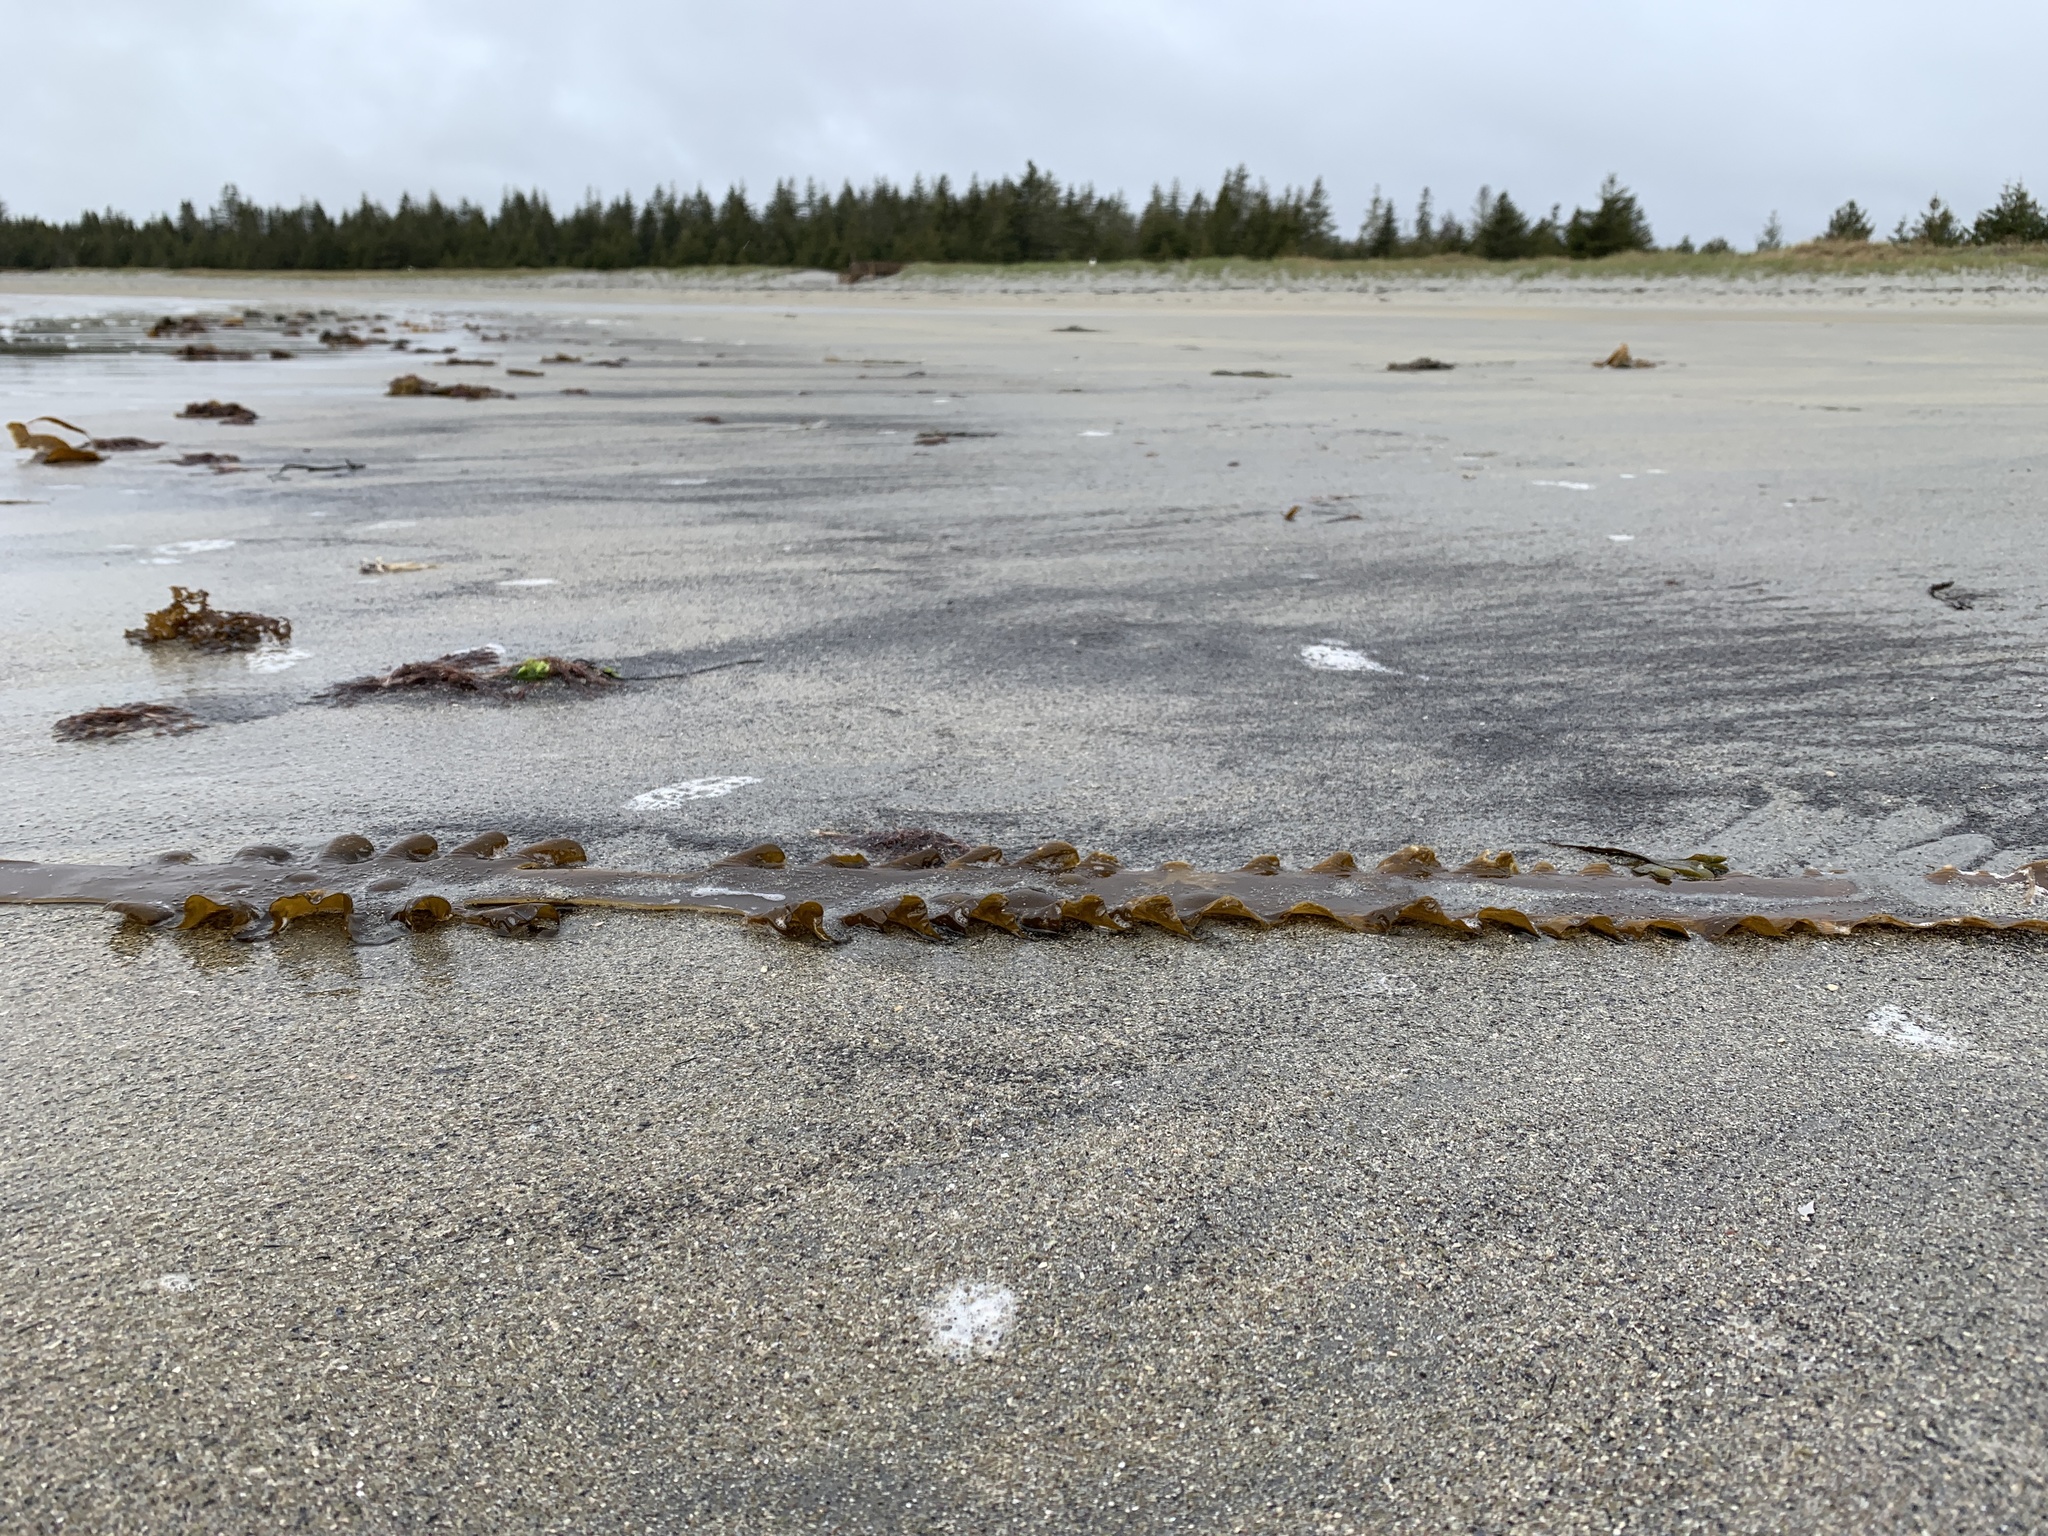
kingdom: Chromista
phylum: Ochrophyta
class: Phaeophyceae
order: Laminariales
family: Laminariaceae
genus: Saccharina
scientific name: Saccharina latissima
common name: Poor man's weather glass
